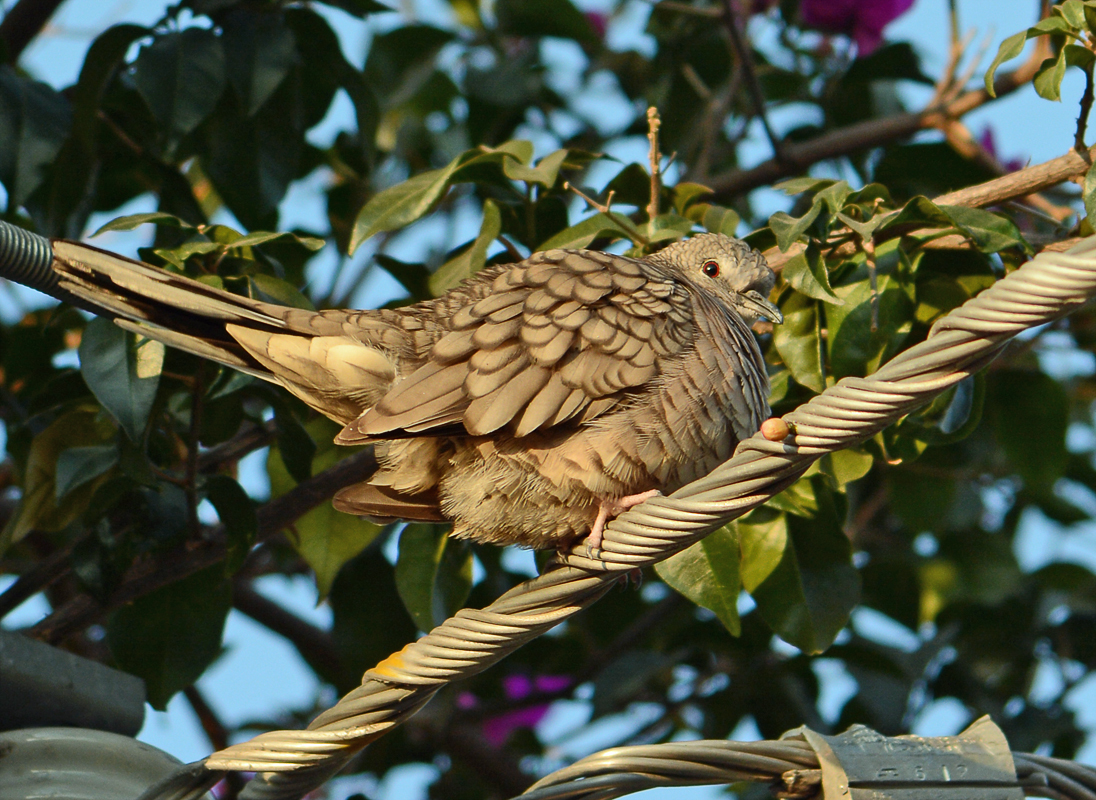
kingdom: Animalia
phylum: Chordata
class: Aves
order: Columbiformes
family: Columbidae
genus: Columbina
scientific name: Columbina inca
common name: Inca dove
